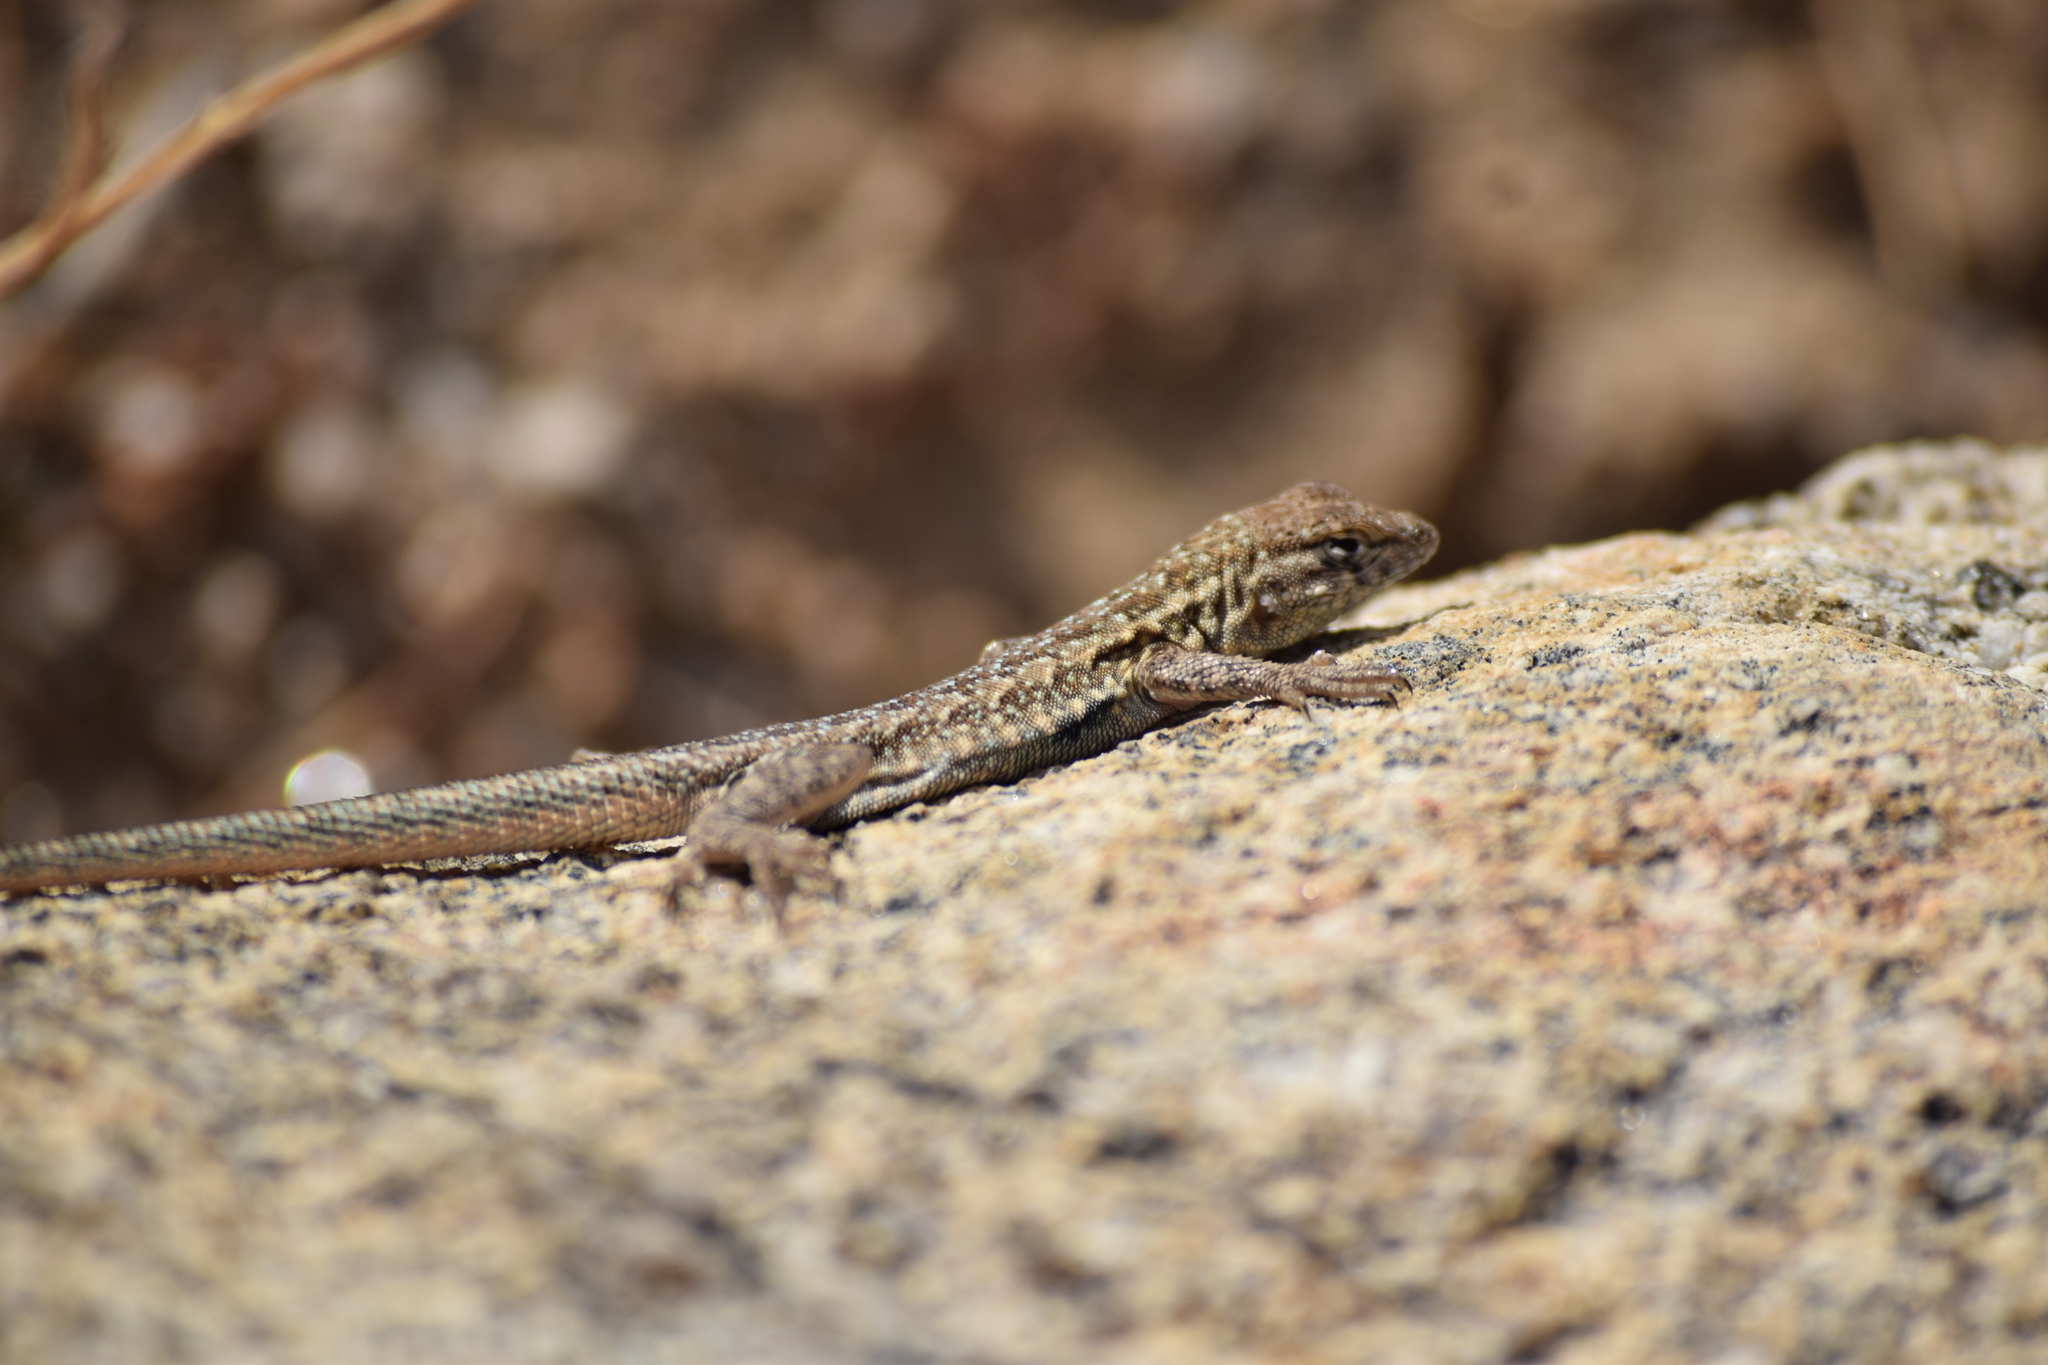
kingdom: Animalia
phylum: Chordata
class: Squamata
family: Phrynosomatidae
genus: Uta
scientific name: Uta stansburiana
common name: Side-blotched lizard
